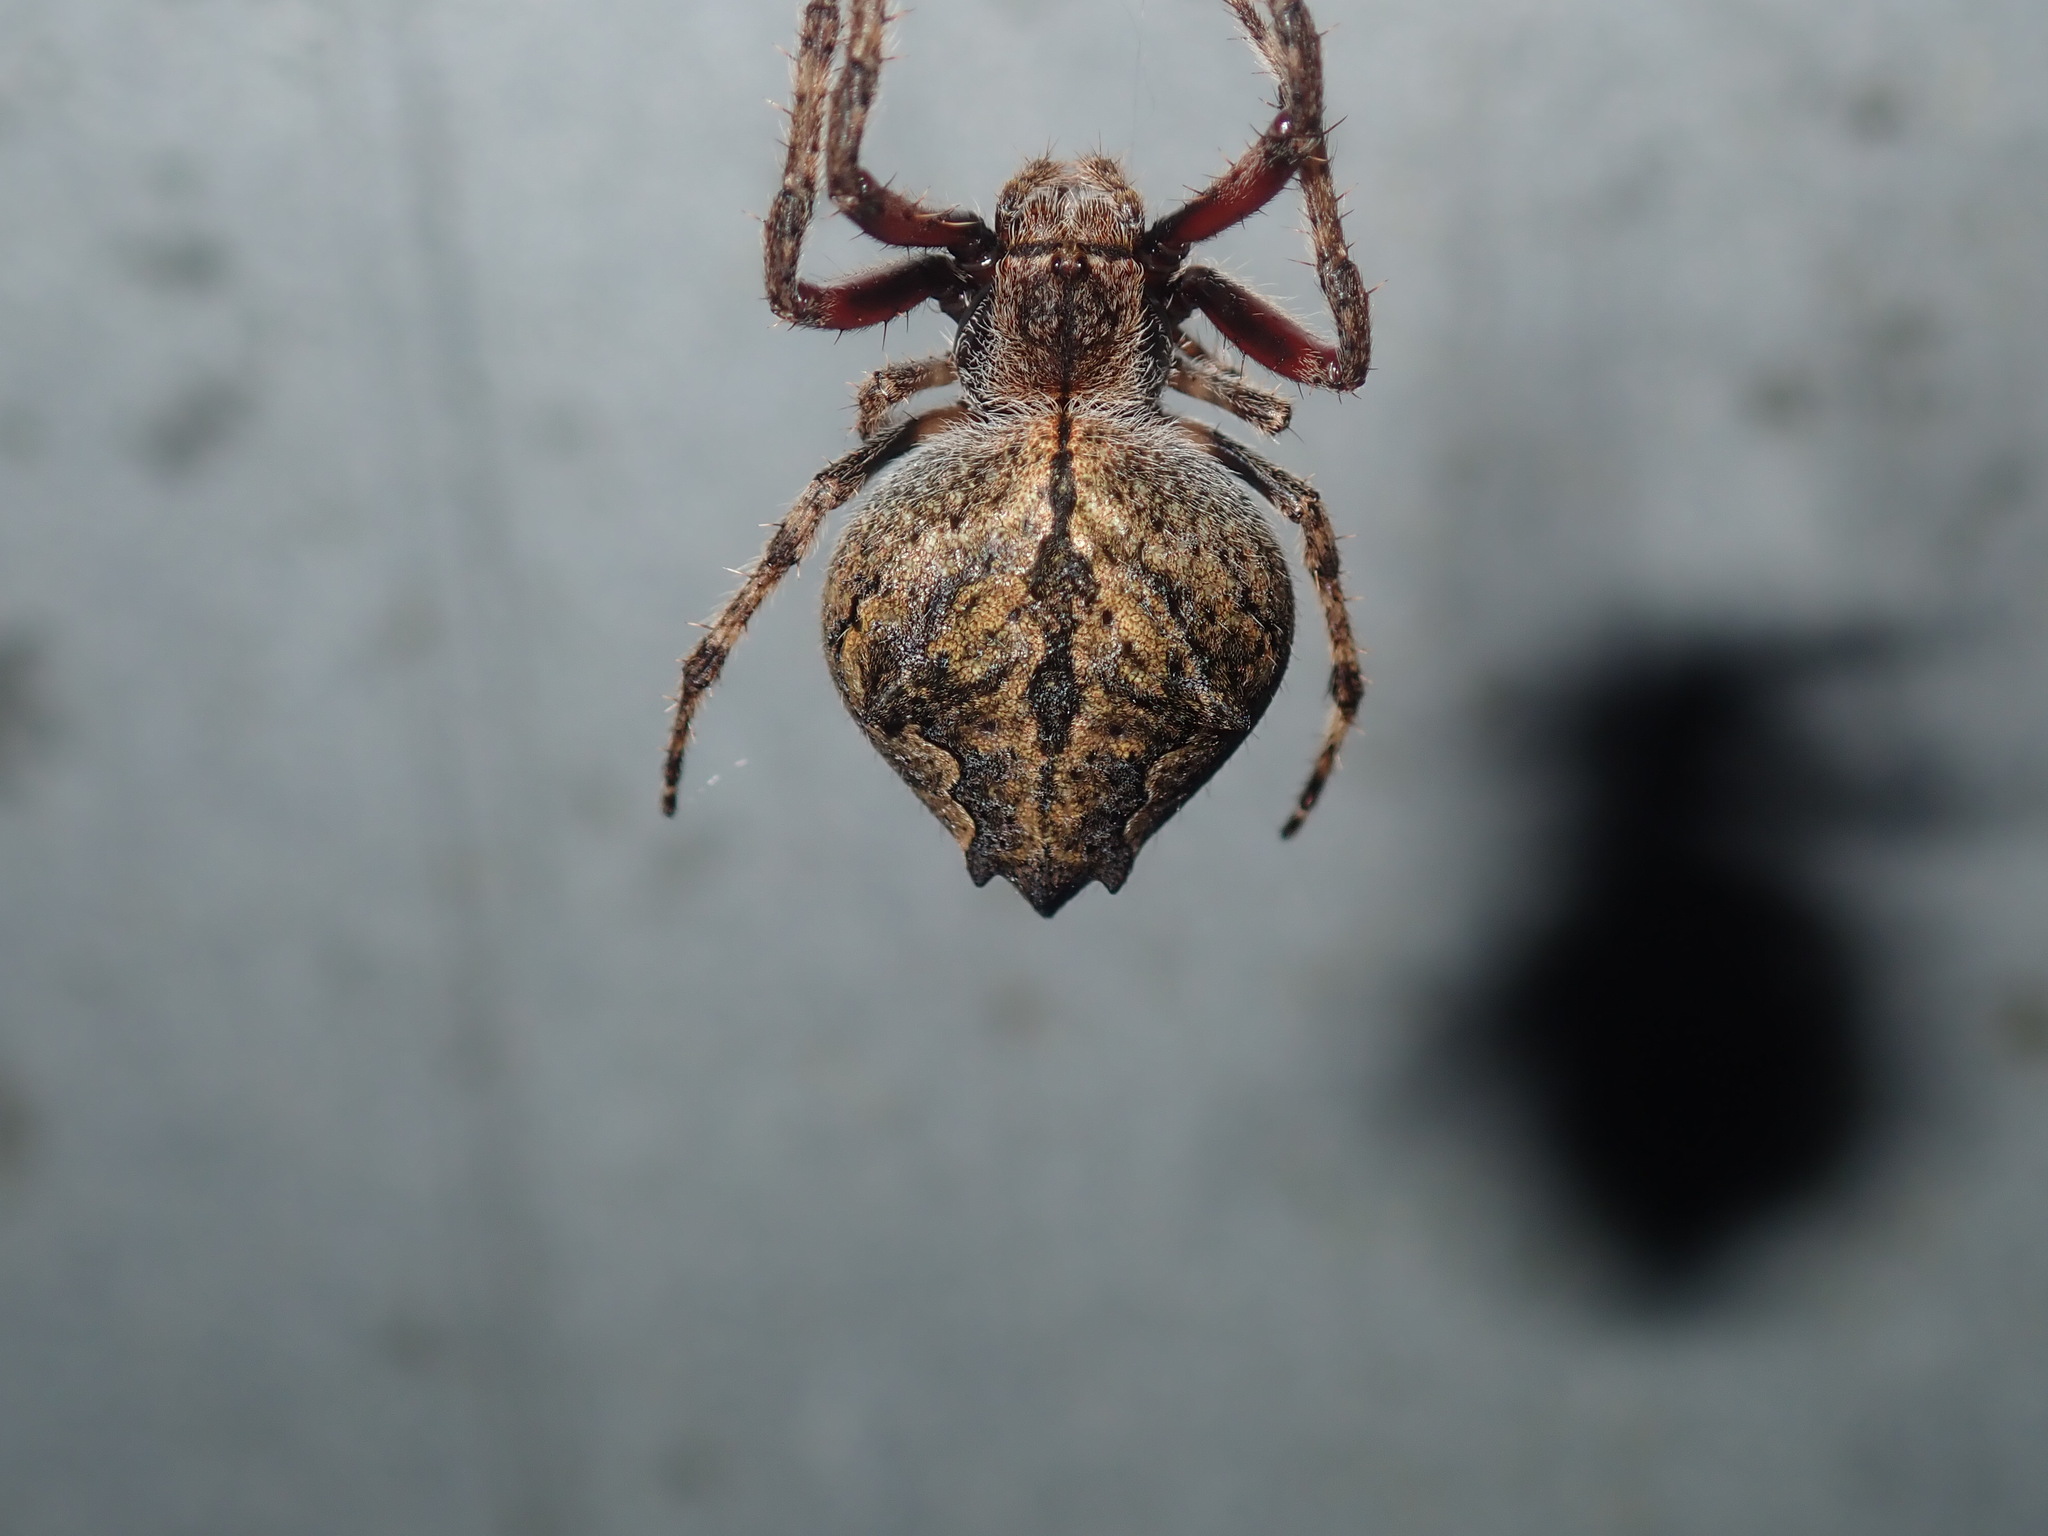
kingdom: Animalia
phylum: Arthropoda
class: Arachnida
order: Araneae
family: Araneidae
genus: Eriophora
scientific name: Eriophora pustulosa
